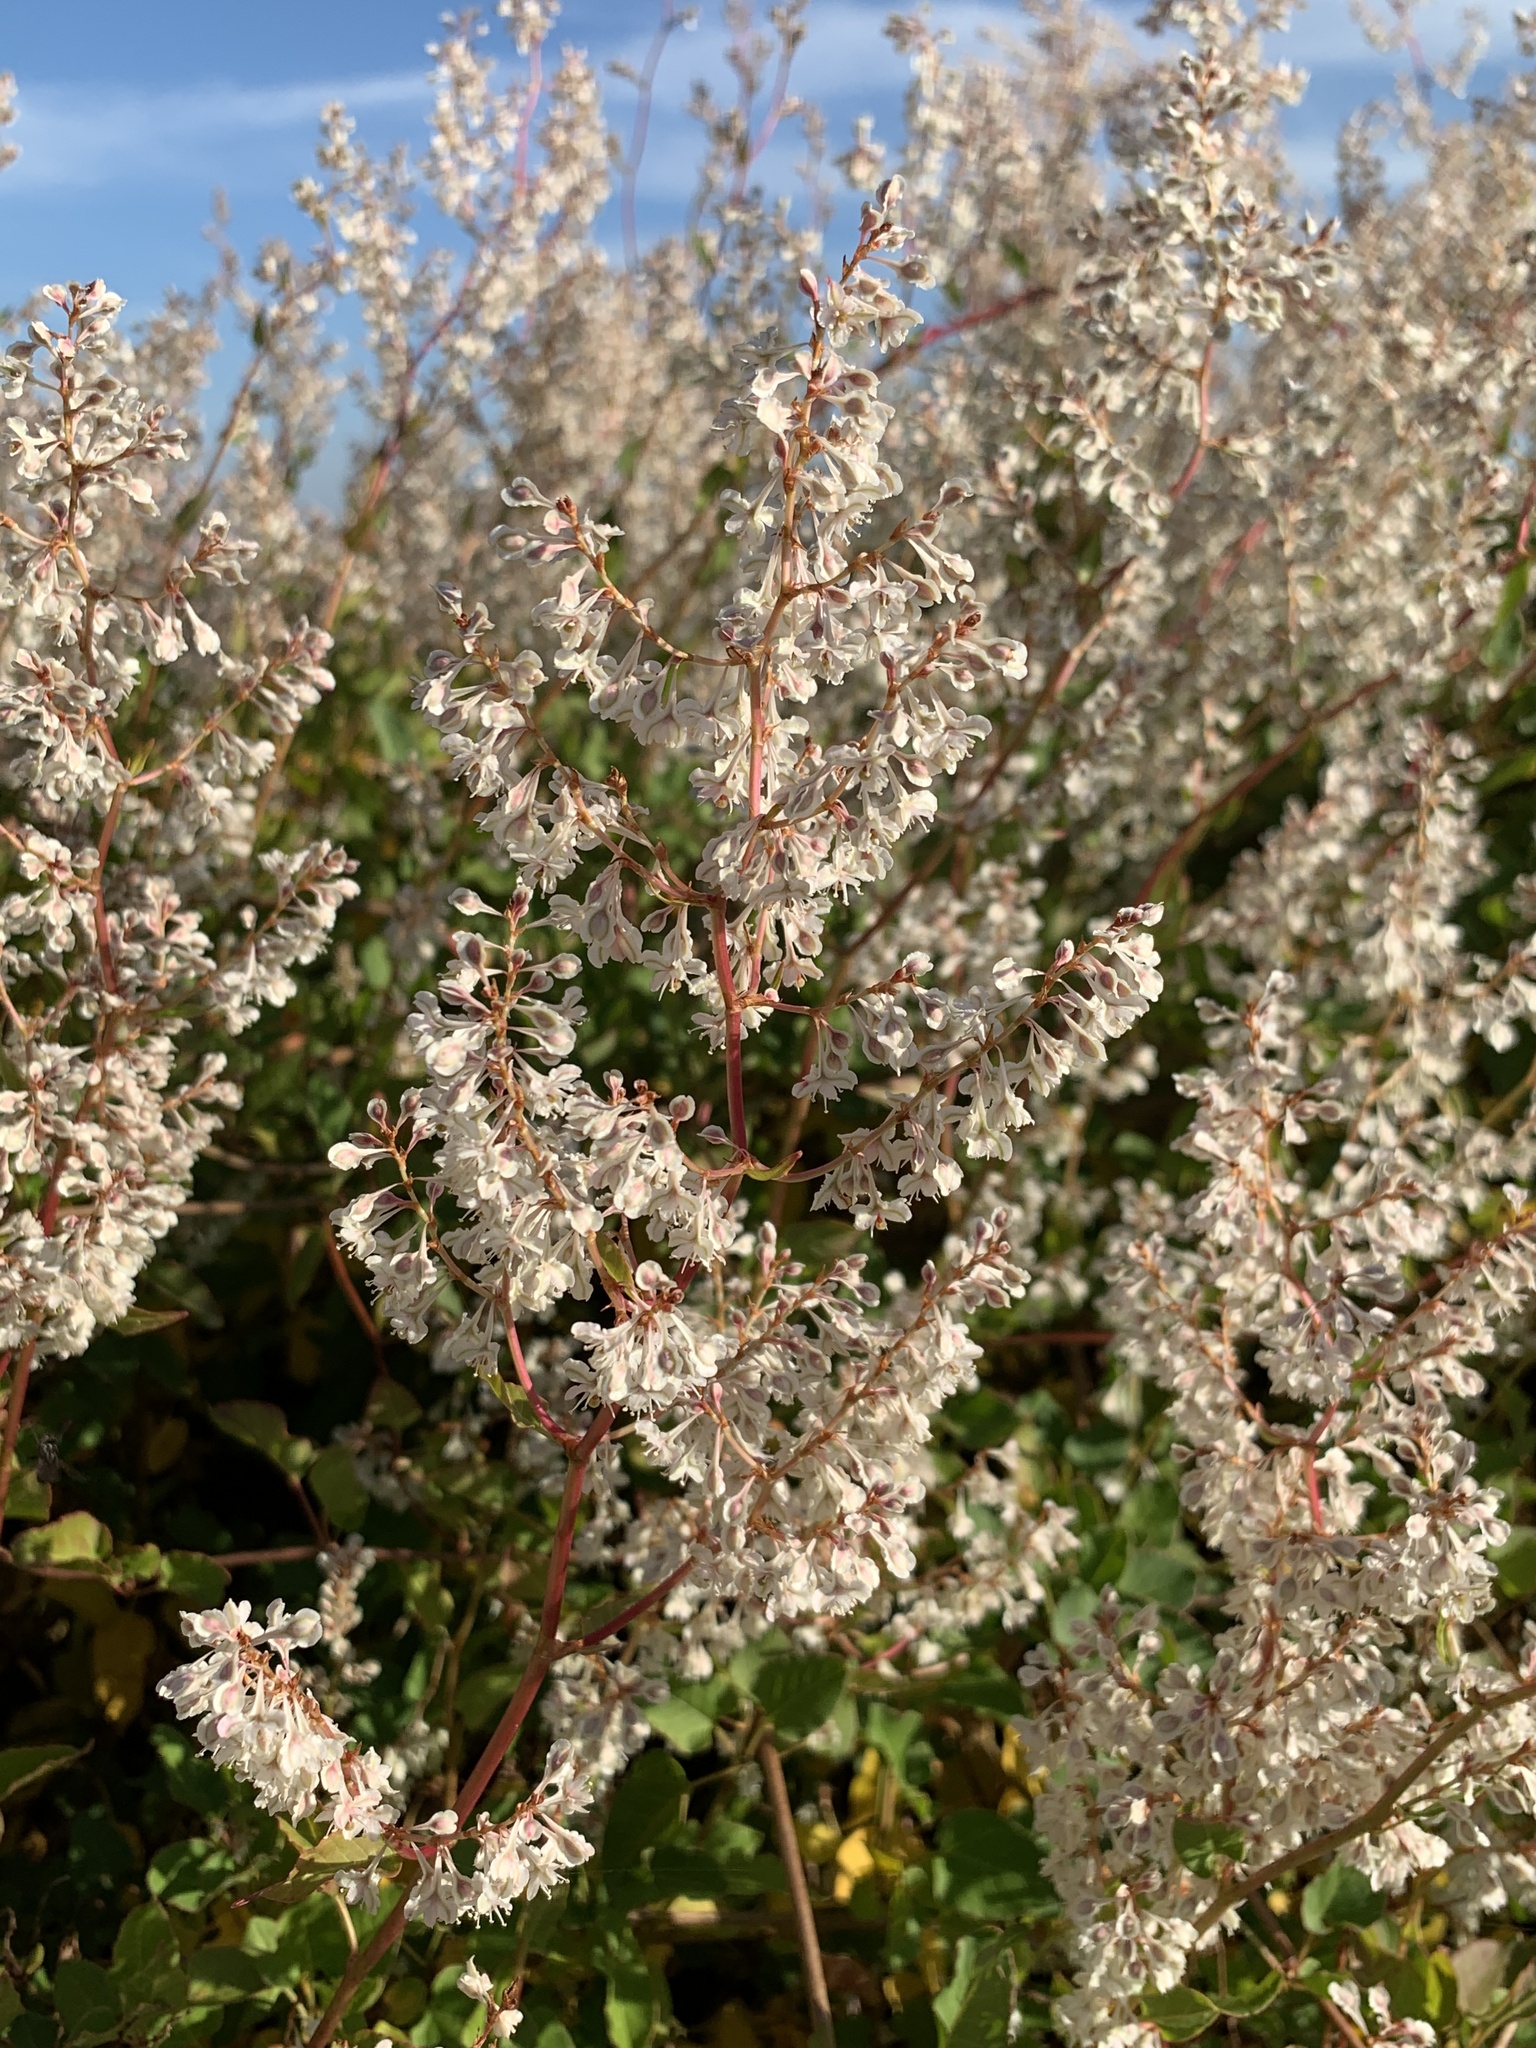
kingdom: Plantae
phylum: Tracheophyta
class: Magnoliopsida
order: Caryophyllales
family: Polygonaceae
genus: Fallopia
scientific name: Fallopia baldschuanica
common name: Russian-vine
